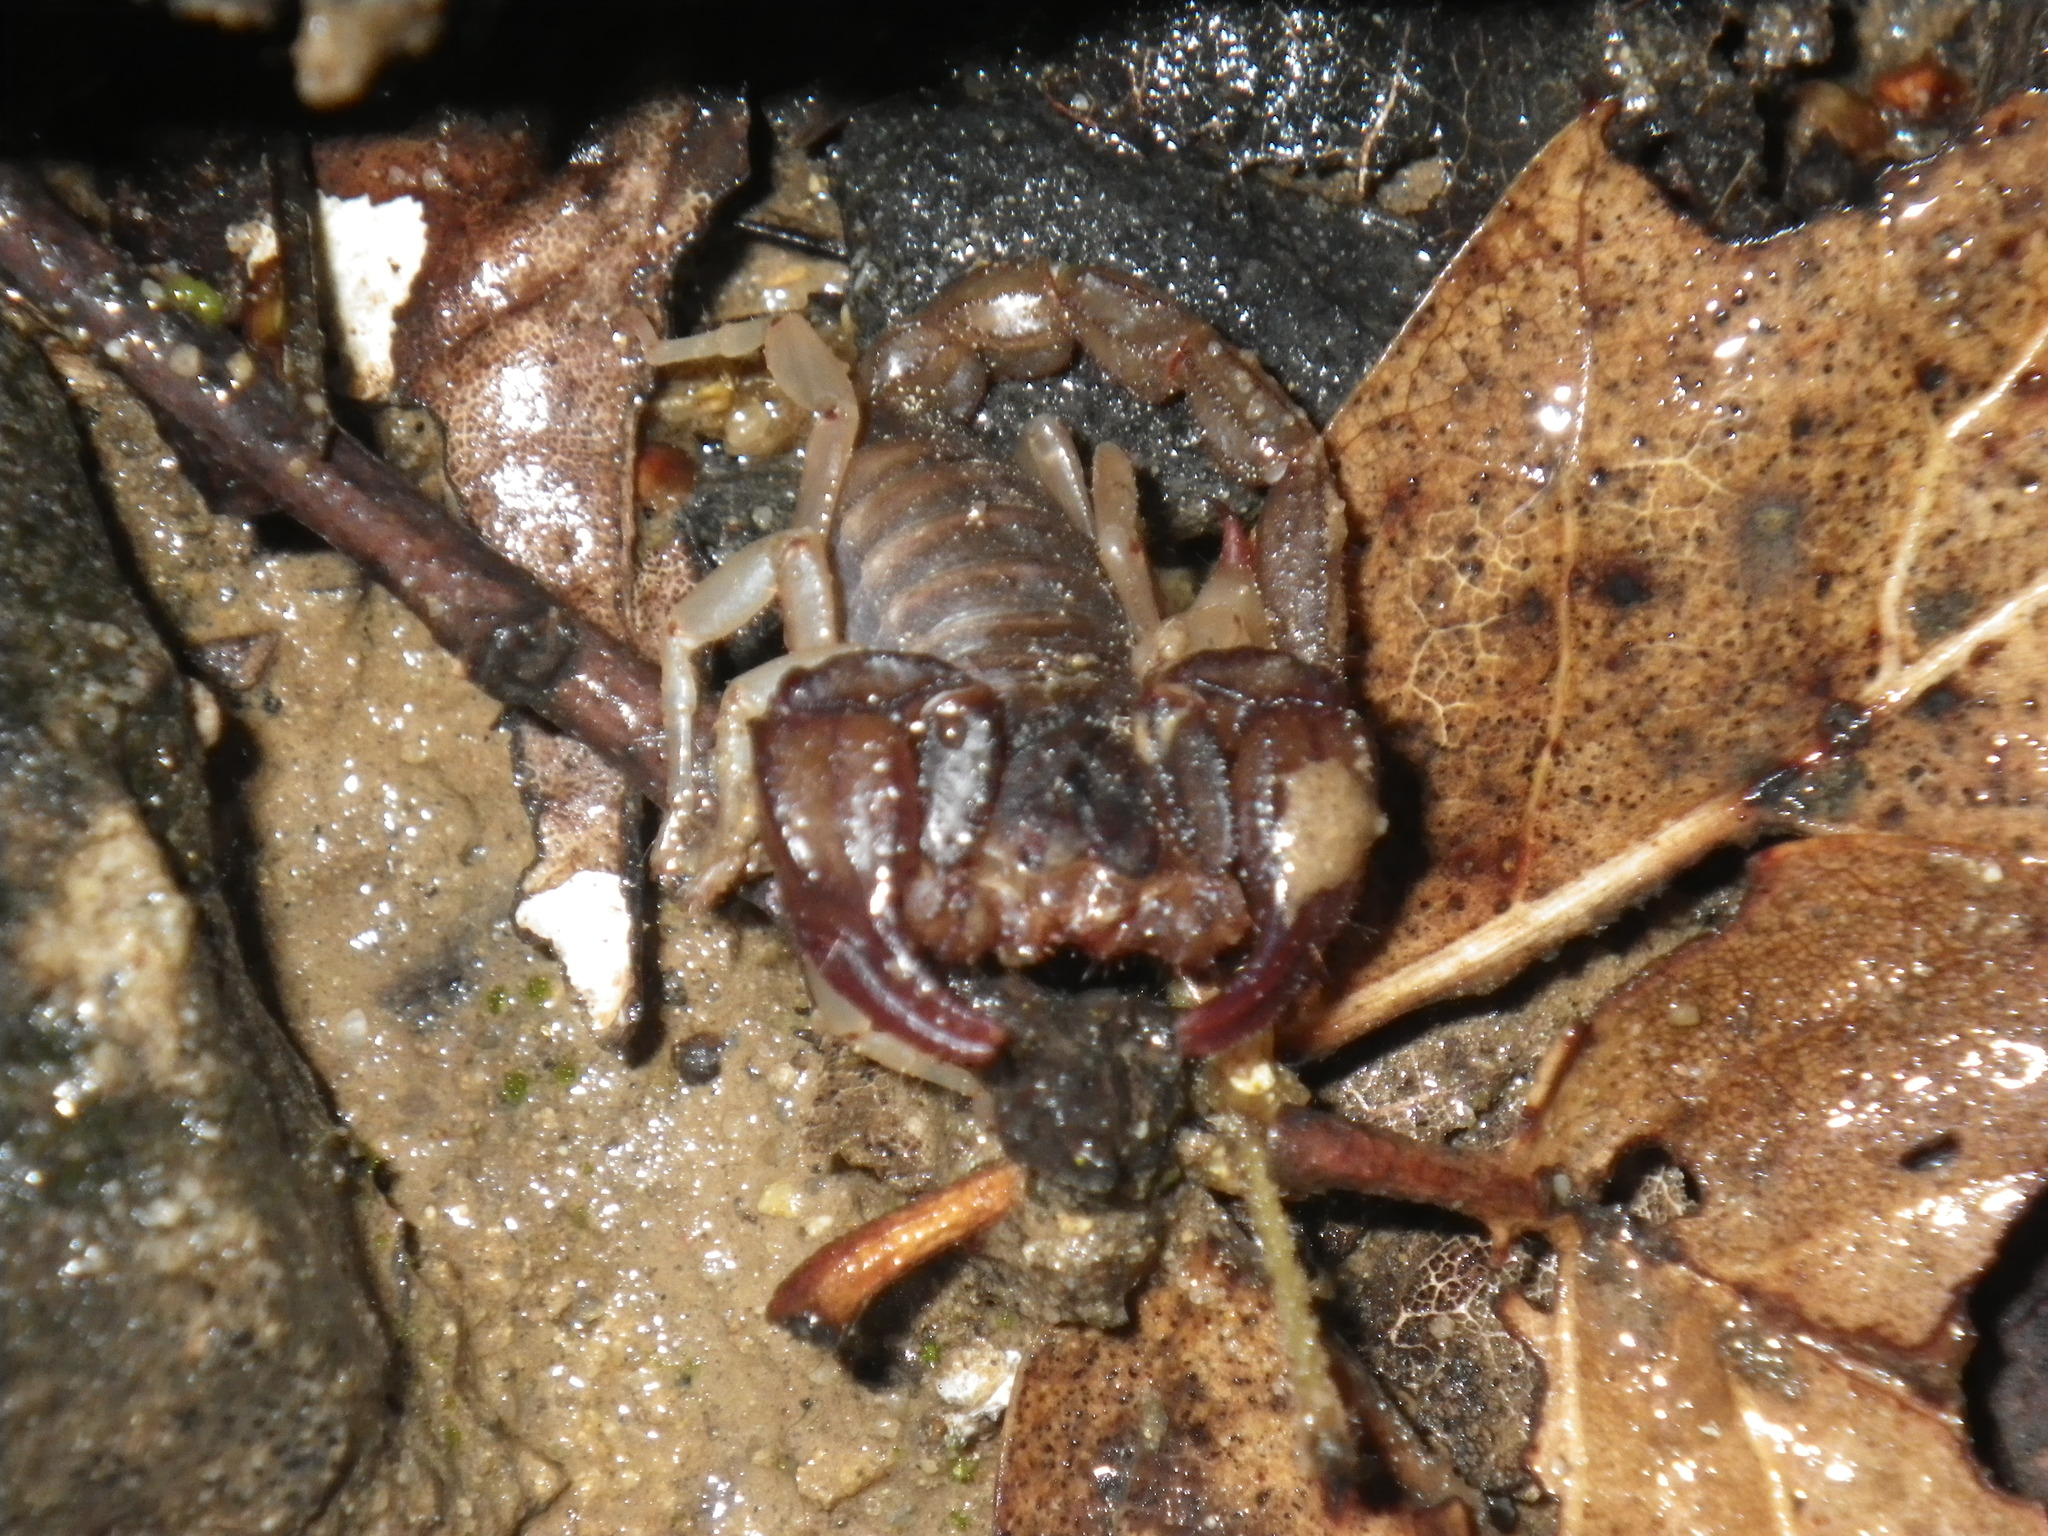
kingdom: Animalia
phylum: Arthropoda
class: Arachnida
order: Scorpiones
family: Chactidae
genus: Uroctonus
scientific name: Uroctonus mordax
